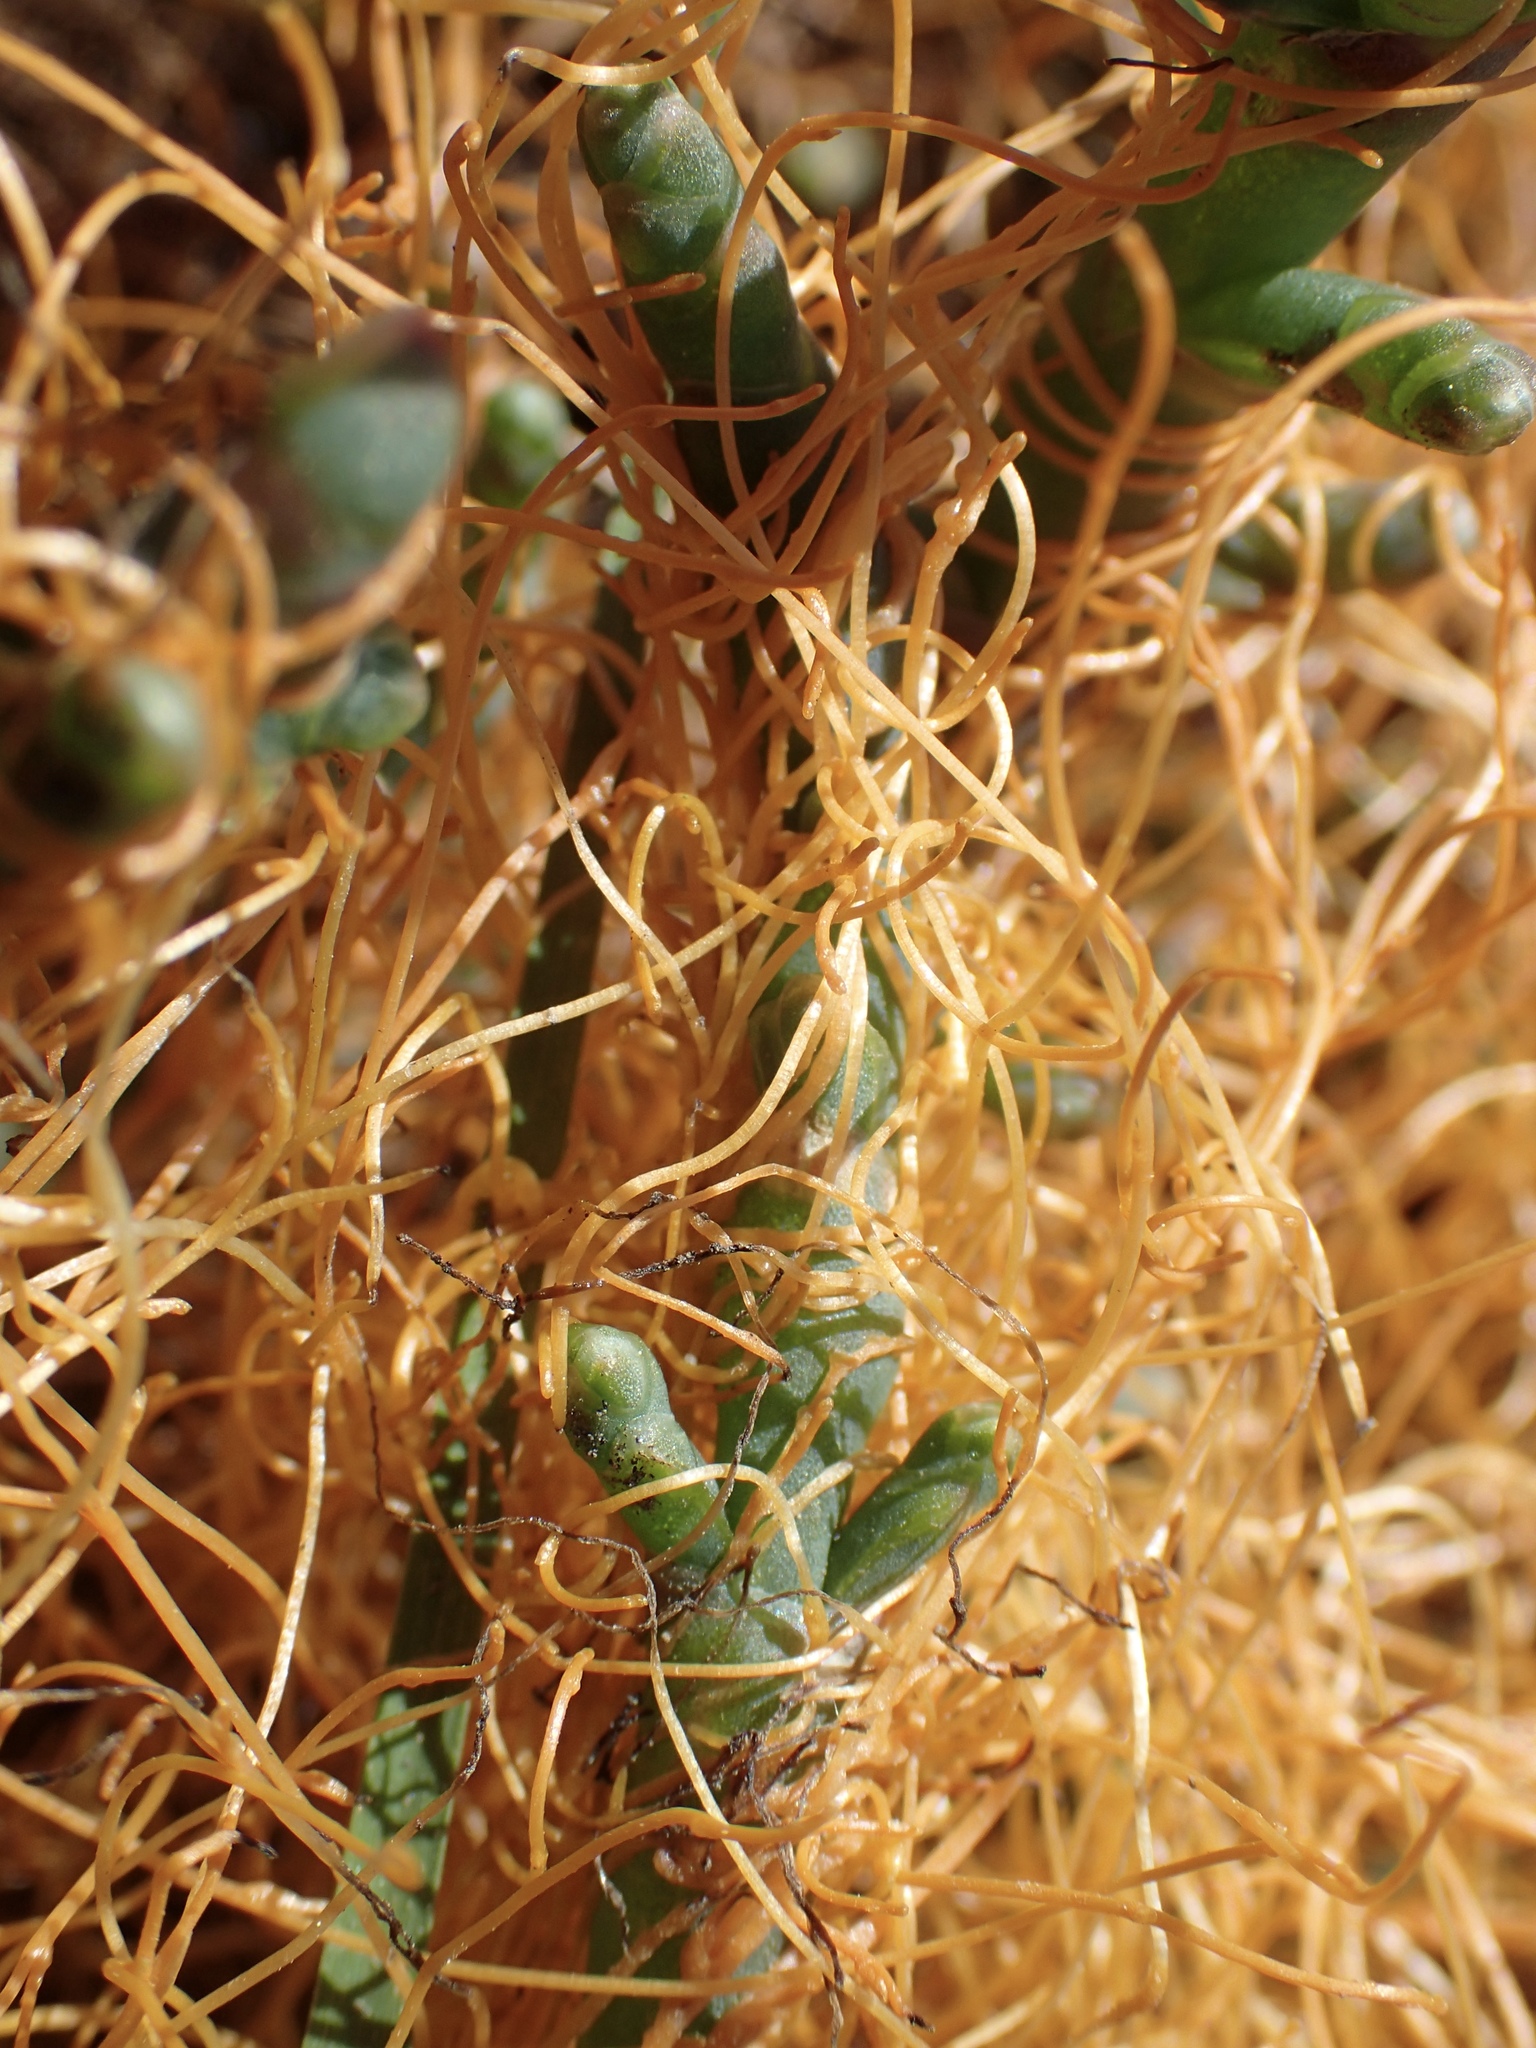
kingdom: Plantae
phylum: Tracheophyta
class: Magnoliopsida
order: Solanales
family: Convolvulaceae
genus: Cuscuta
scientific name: Cuscuta pacifica
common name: Large saltmarsh dodder
